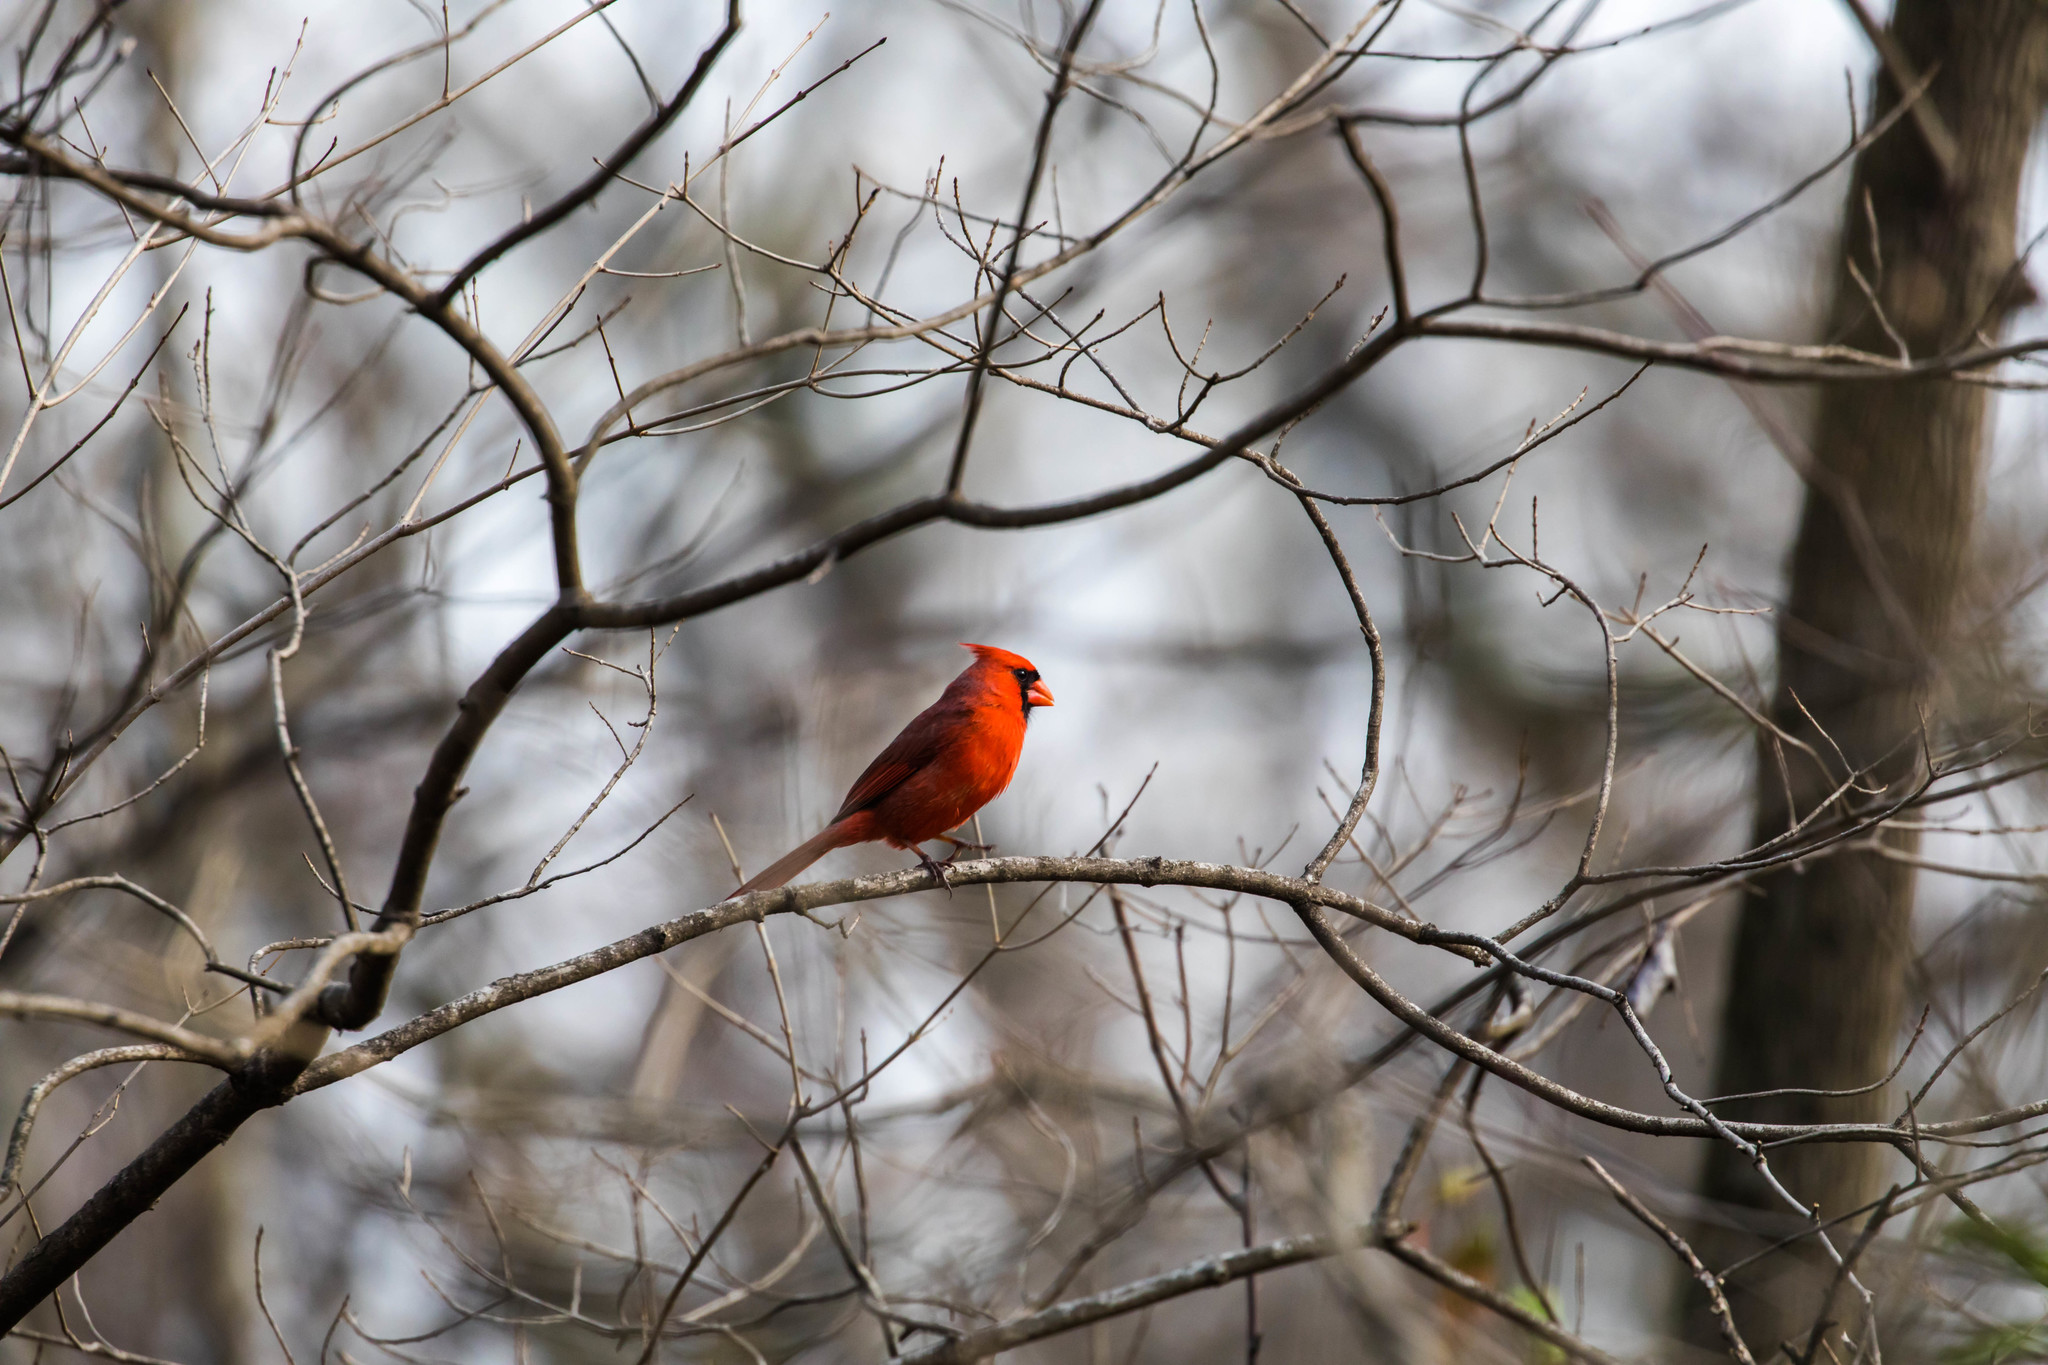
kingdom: Animalia
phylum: Chordata
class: Aves
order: Passeriformes
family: Cardinalidae
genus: Cardinalis
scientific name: Cardinalis cardinalis
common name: Northern cardinal
